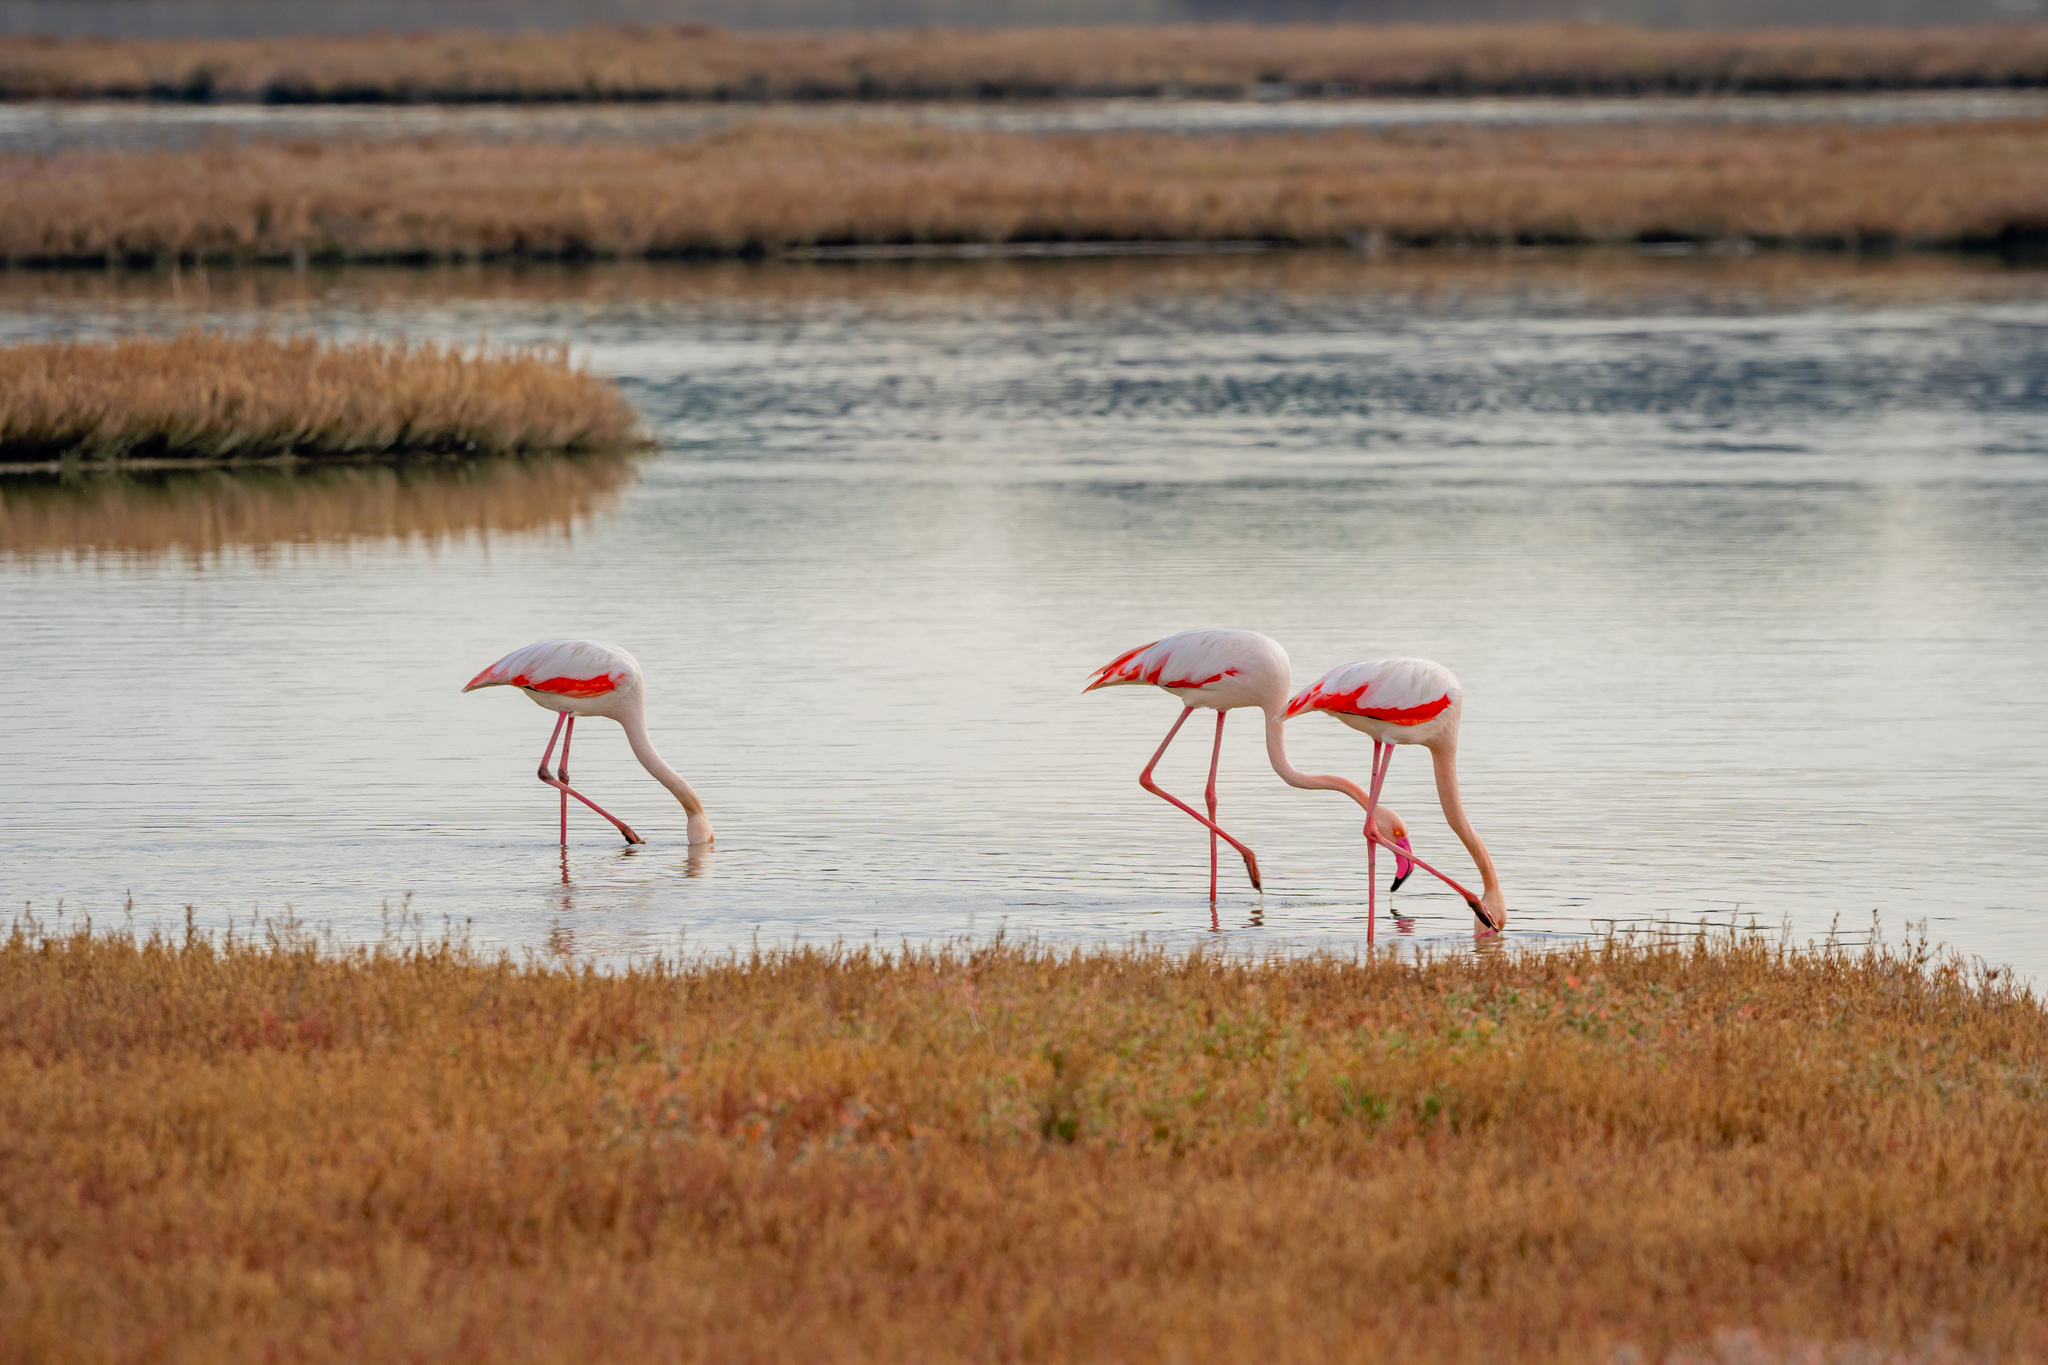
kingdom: Animalia
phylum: Chordata
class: Aves
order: Phoenicopteriformes
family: Phoenicopteridae
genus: Phoenicopterus
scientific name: Phoenicopterus roseus
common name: Greater flamingo
